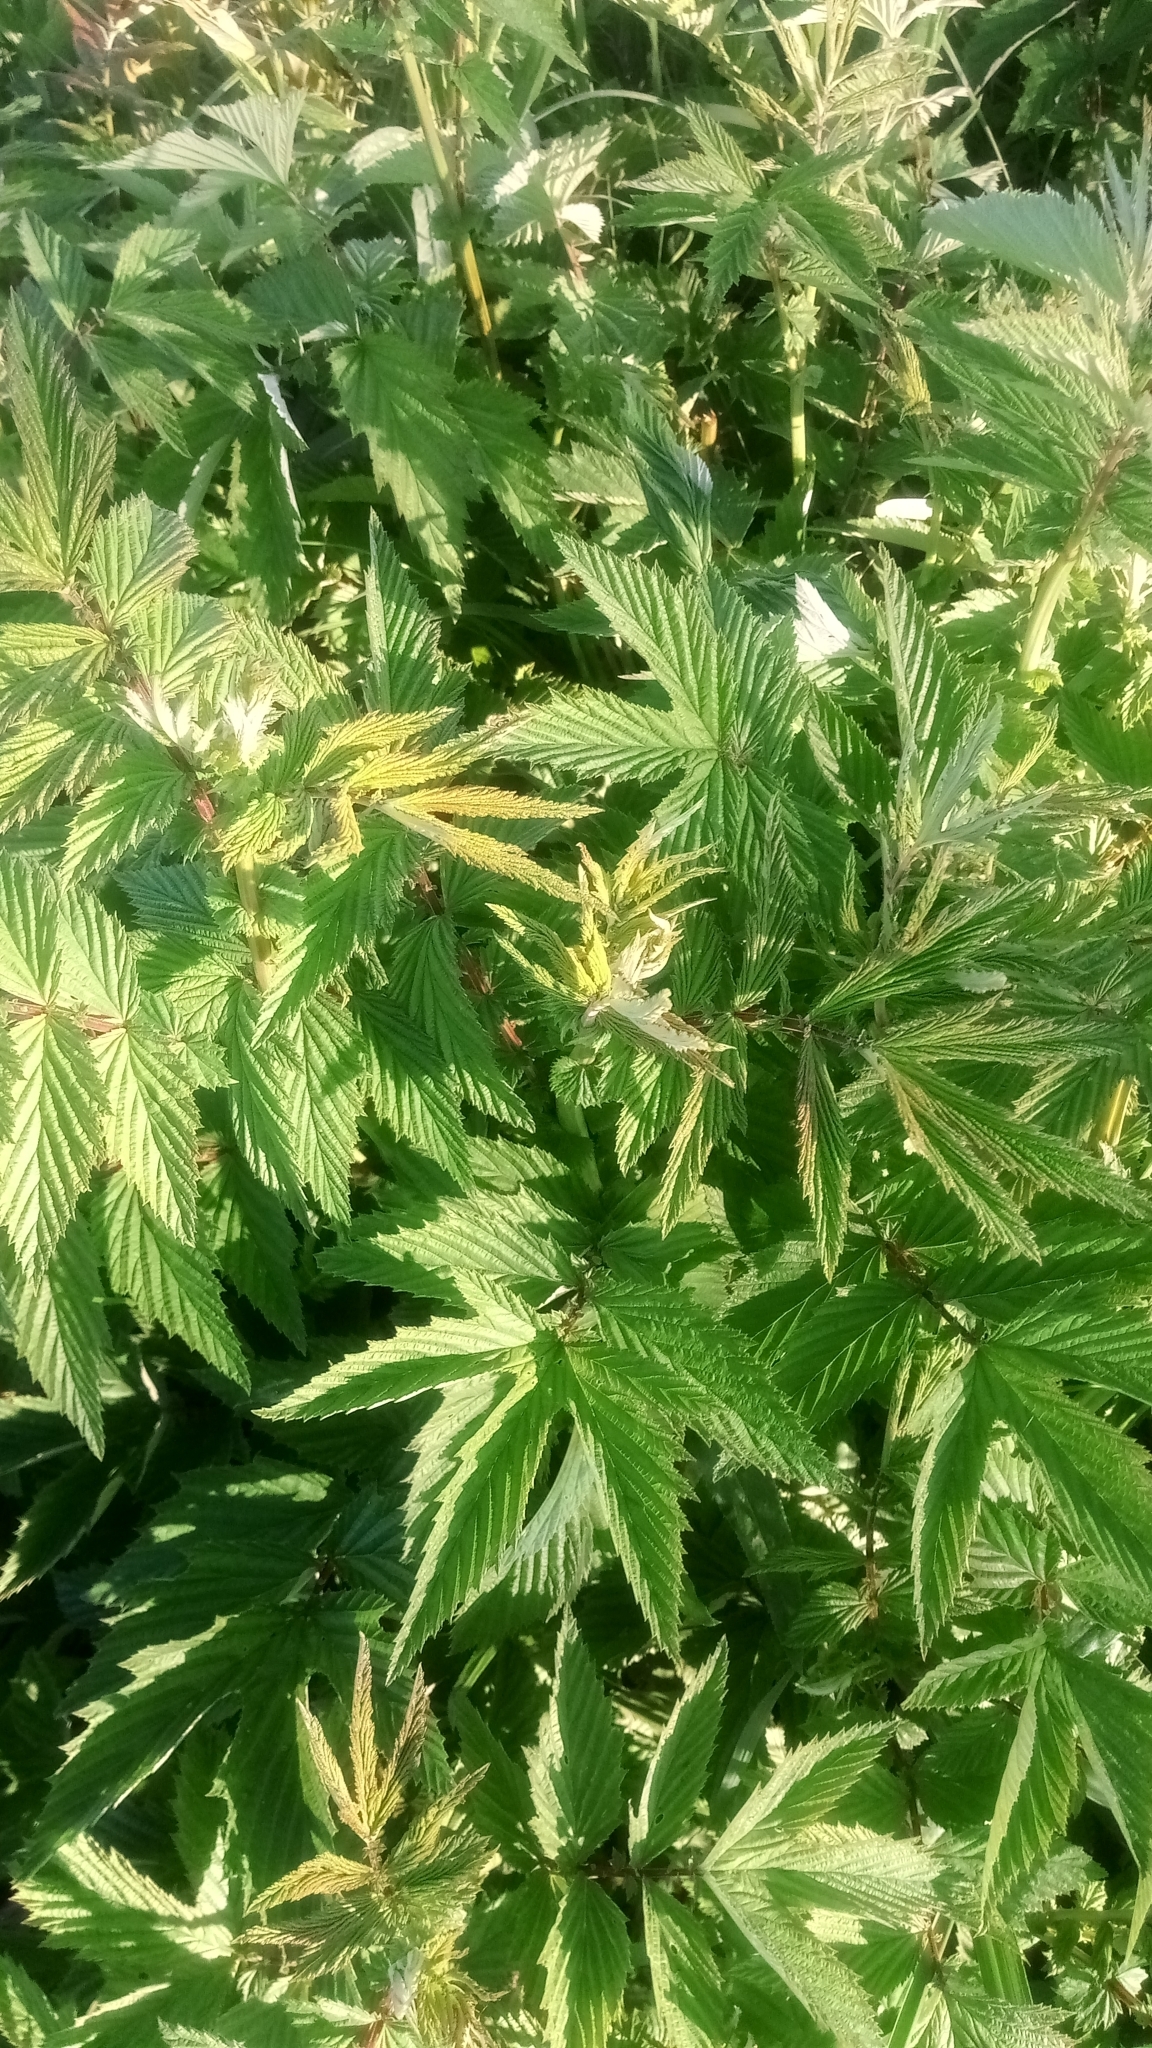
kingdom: Plantae
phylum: Tracheophyta
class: Magnoliopsida
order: Rosales
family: Rosaceae
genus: Filipendula
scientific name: Filipendula ulmaria
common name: Meadowsweet
